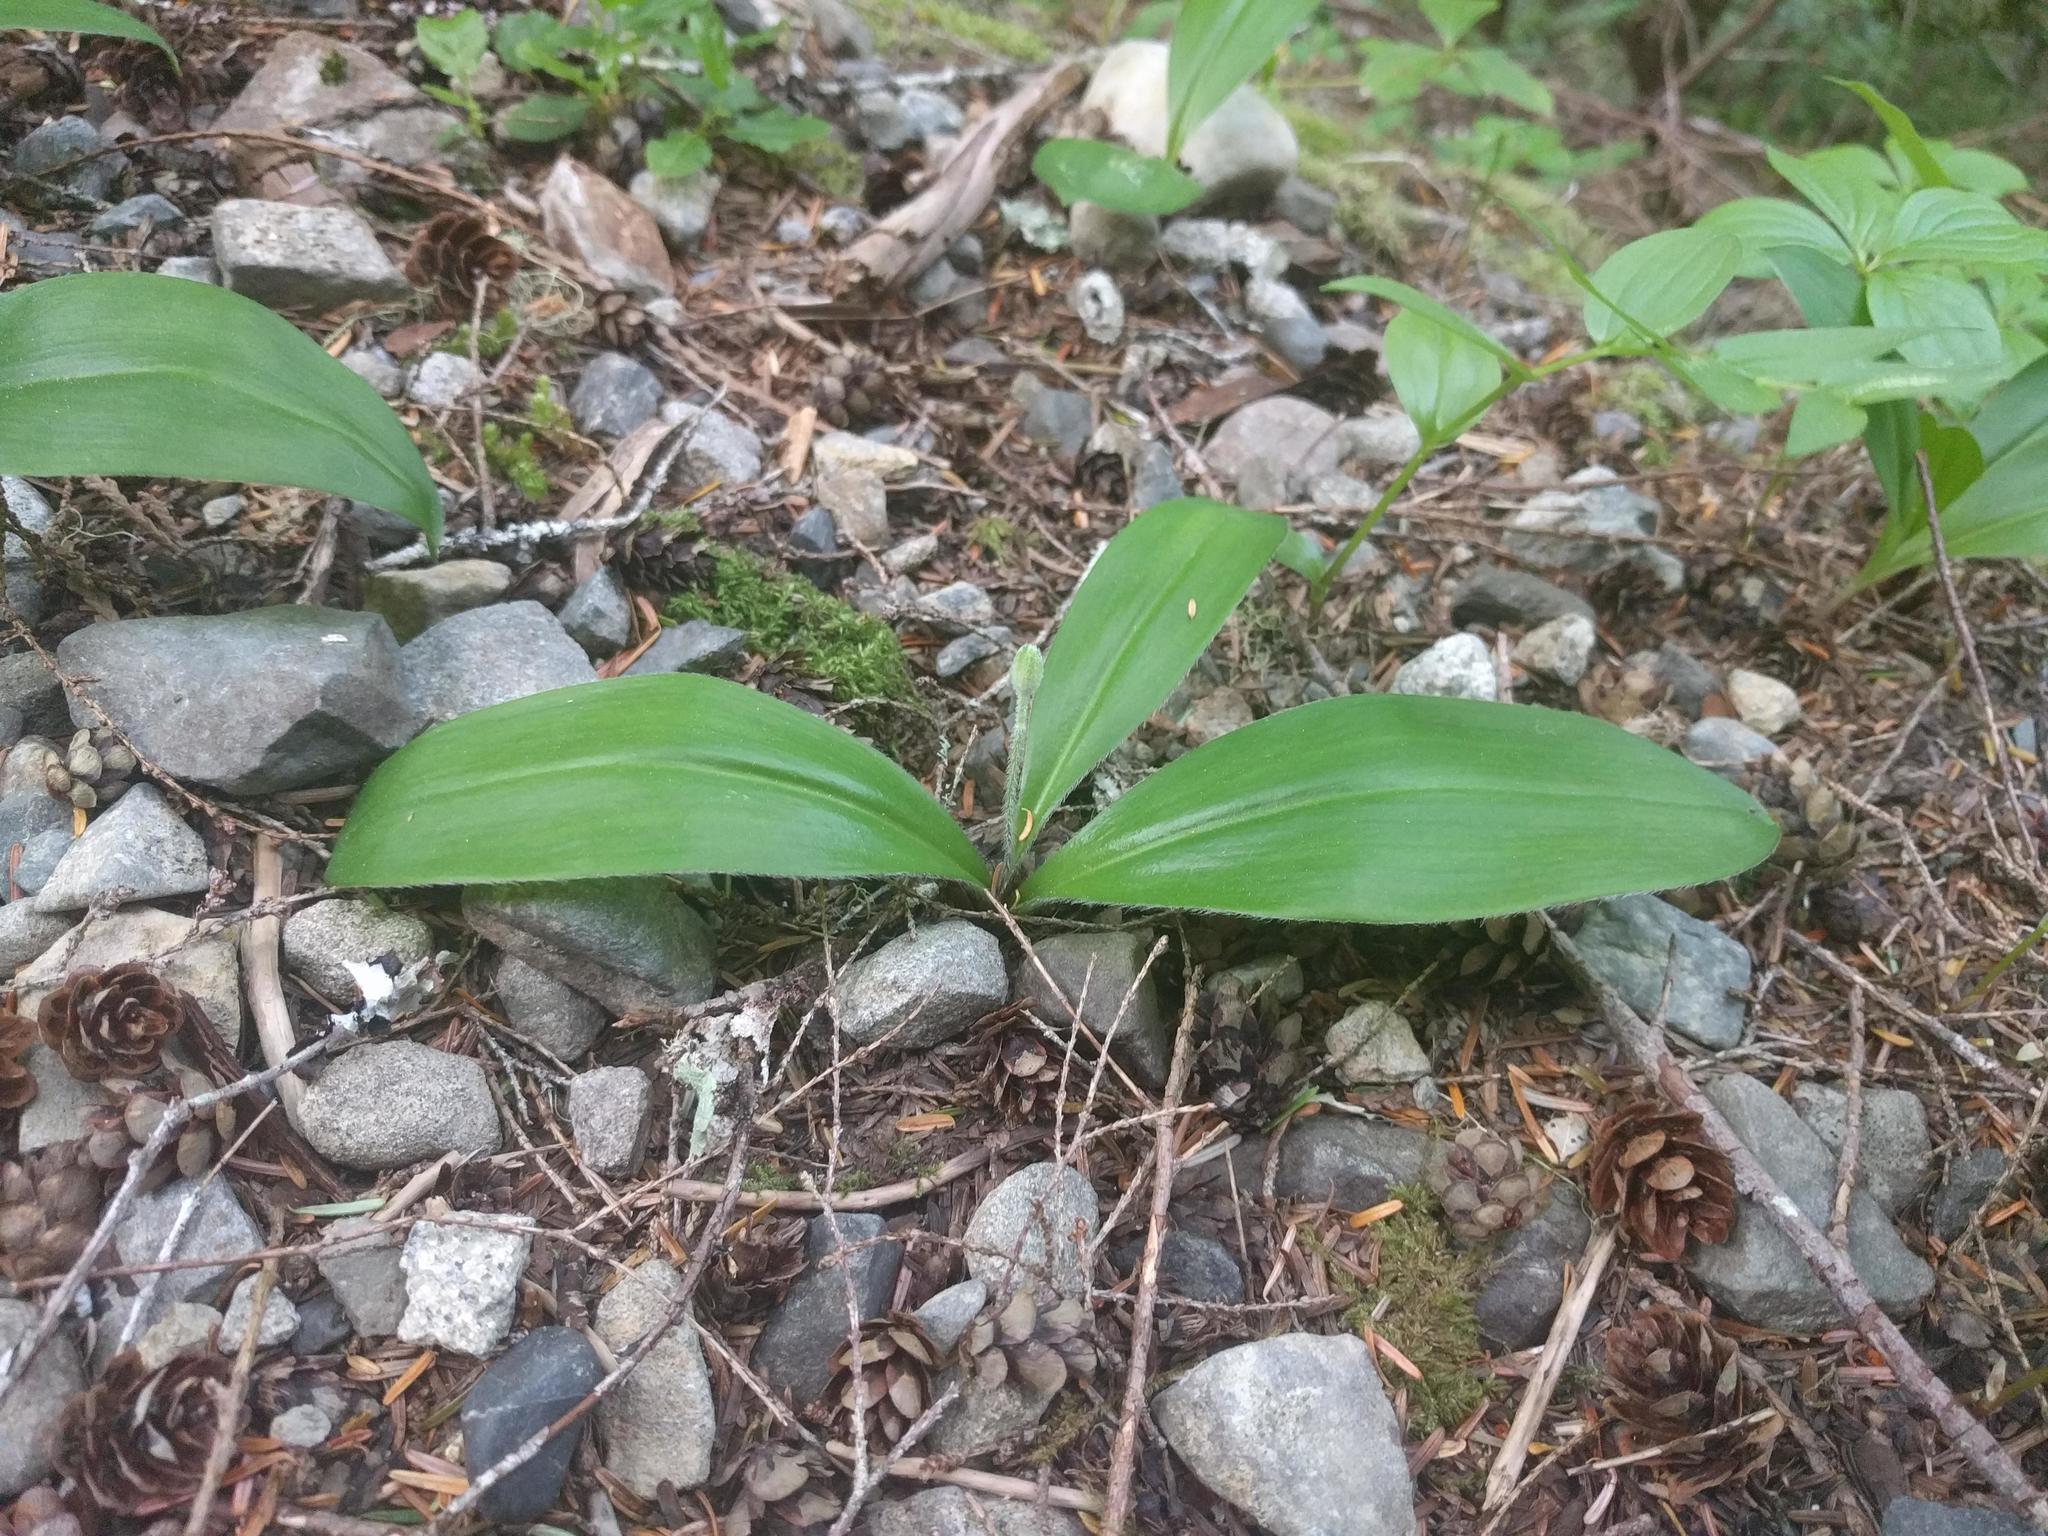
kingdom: Plantae
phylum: Tracheophyta
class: Liliopsida
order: Liliales
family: Liliaceae
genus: Clintonia
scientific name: Clintonia uniflora
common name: Queen's cup
